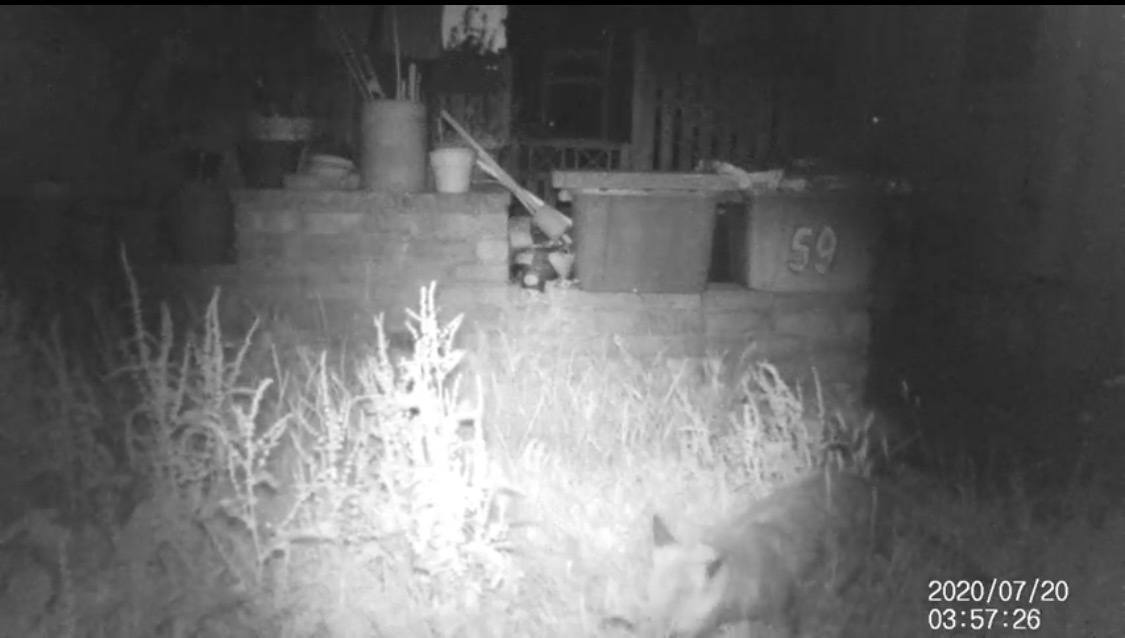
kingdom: Animalia
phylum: Chordata
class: Mammalia
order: Carnivora
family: Canidae
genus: Vulpes
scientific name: Vulpes vulpes
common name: Red fox
